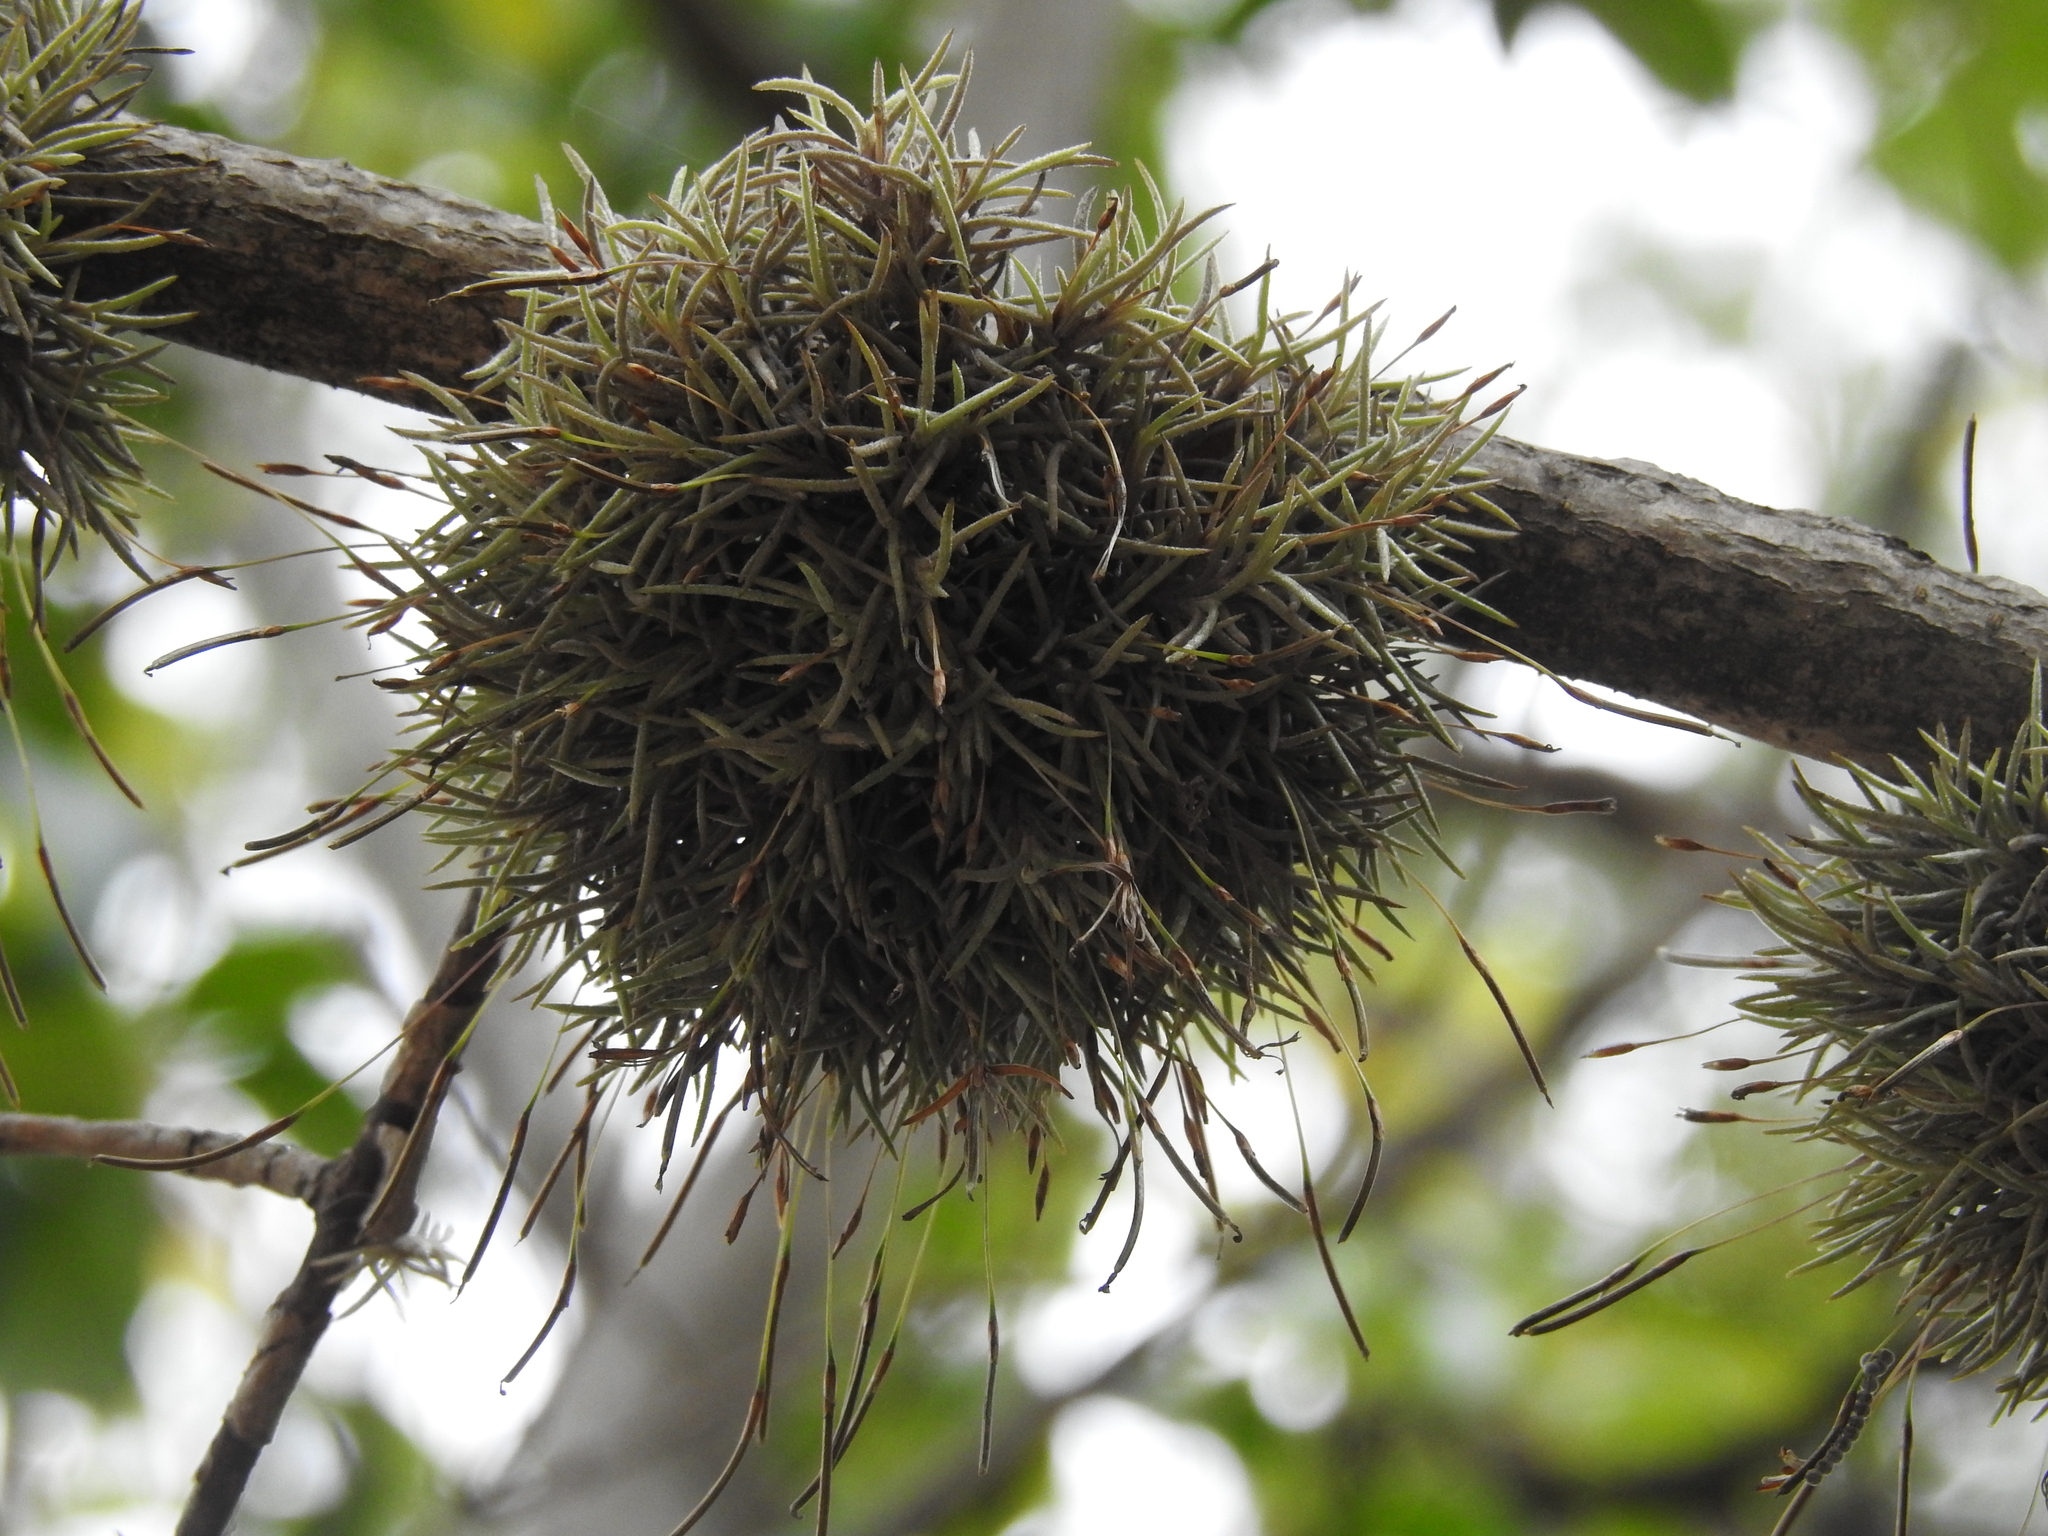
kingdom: Plantae
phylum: Tracheophyta
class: Liliopsida
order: Poales
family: Bromeliaceae
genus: Tillandsia
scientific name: Tillandsia capillaris
